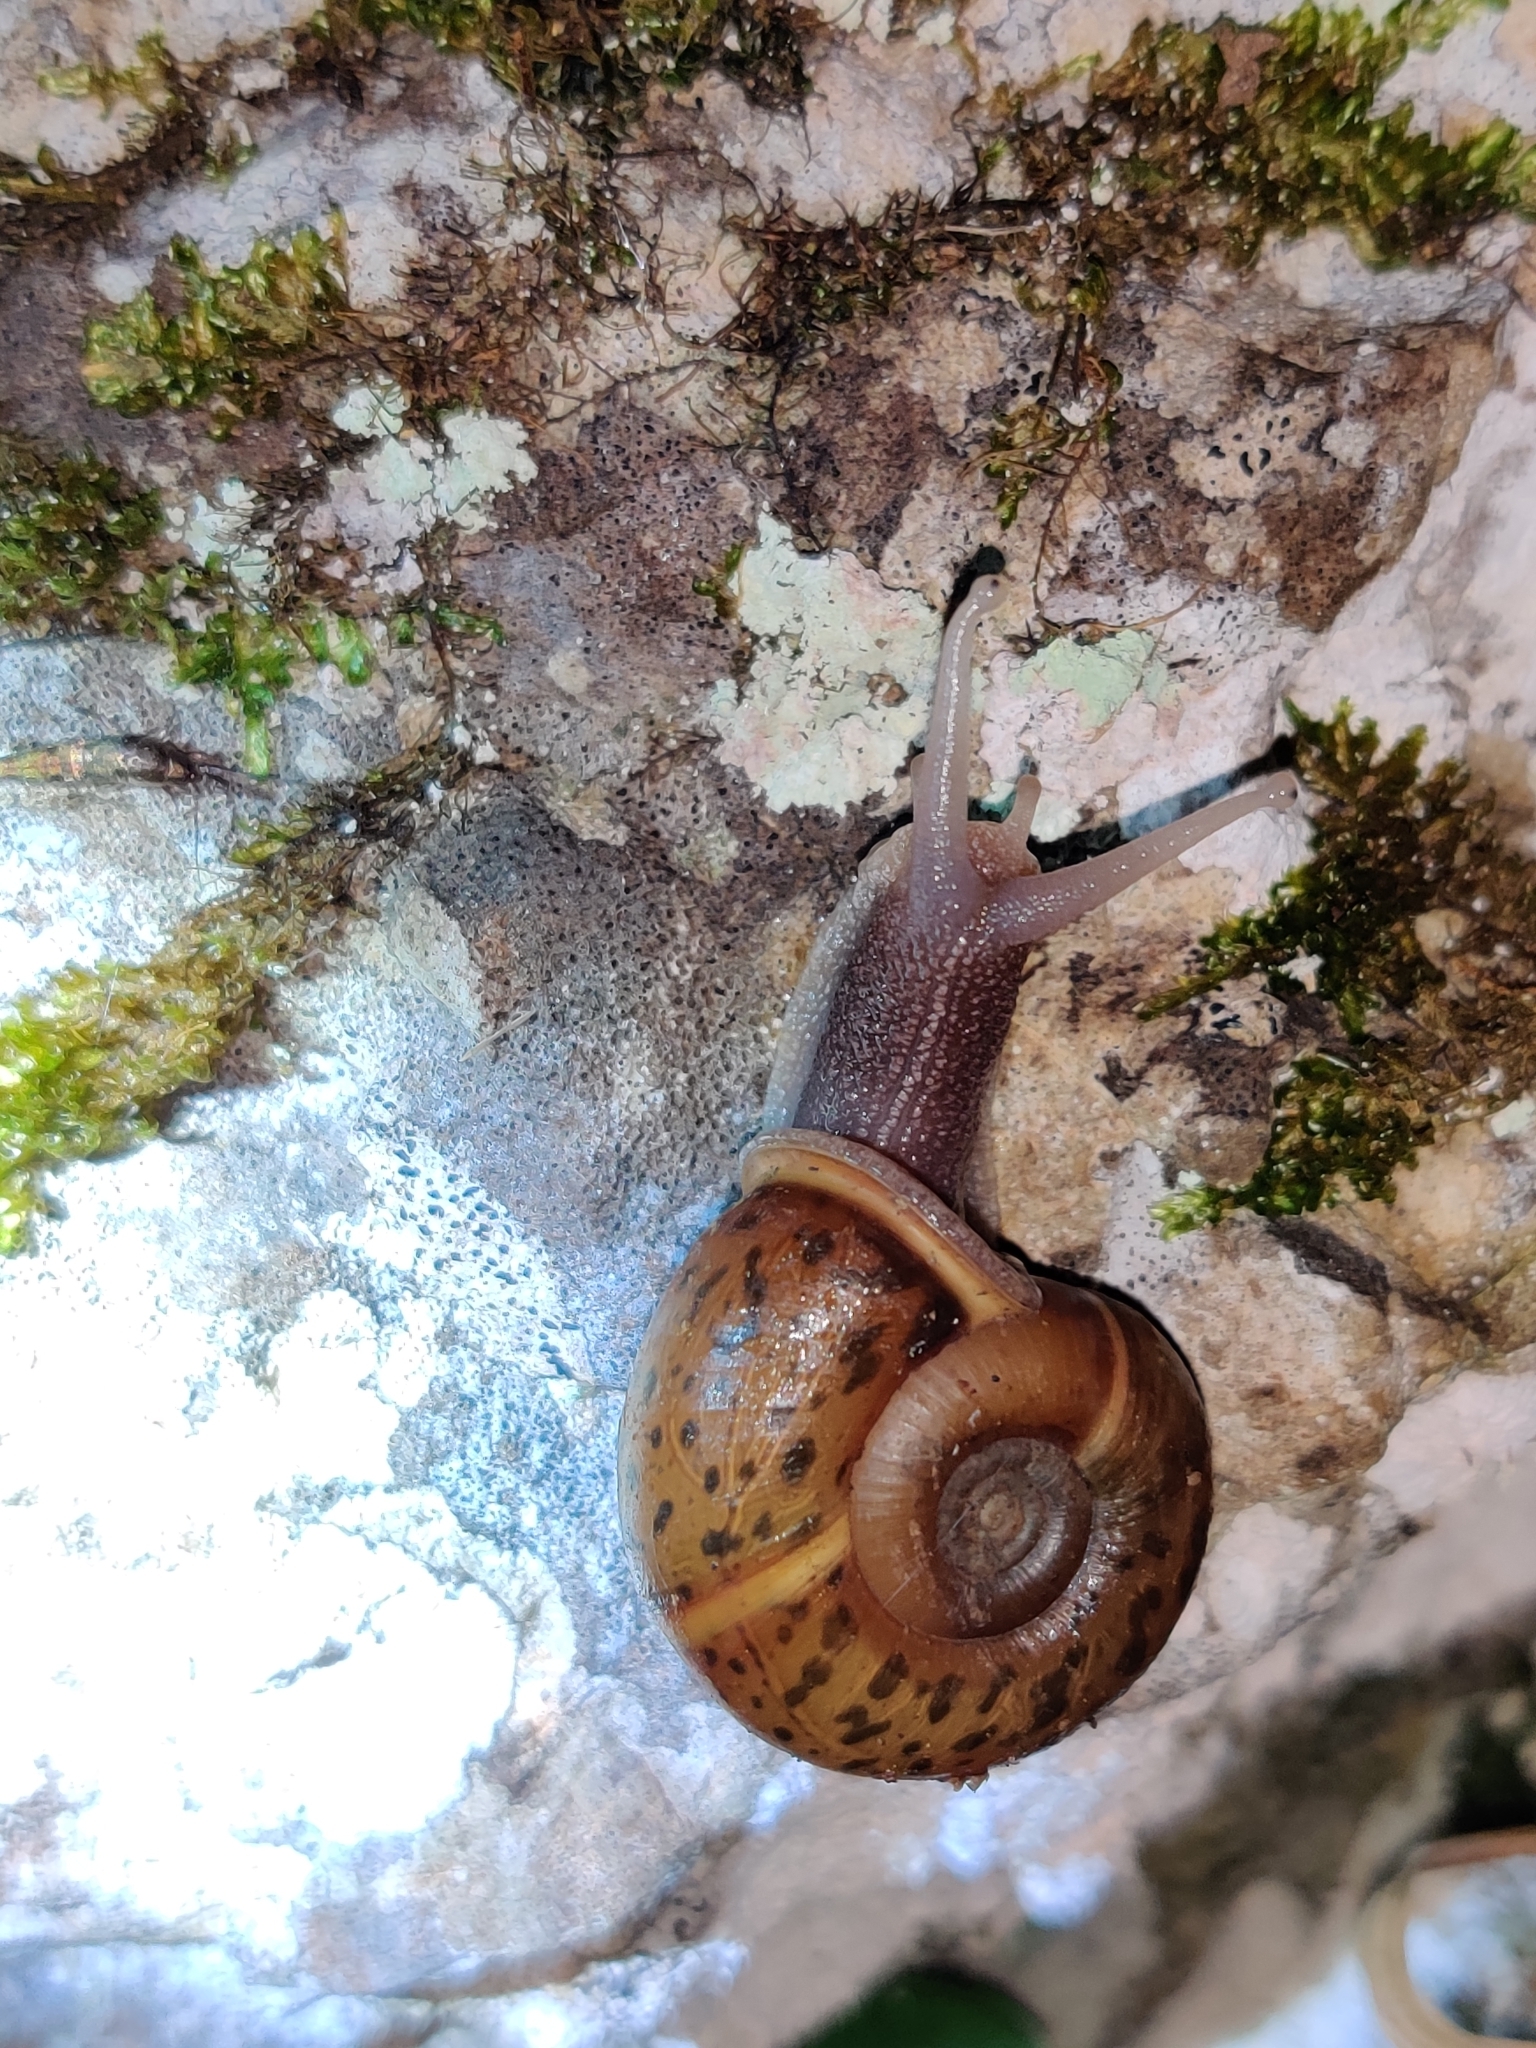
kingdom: Animalia
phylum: Mollusca
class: Gastropoda
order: Stylommatophora
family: Elonidae
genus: Elona
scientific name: Elona quimperiana
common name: Quimper snail
